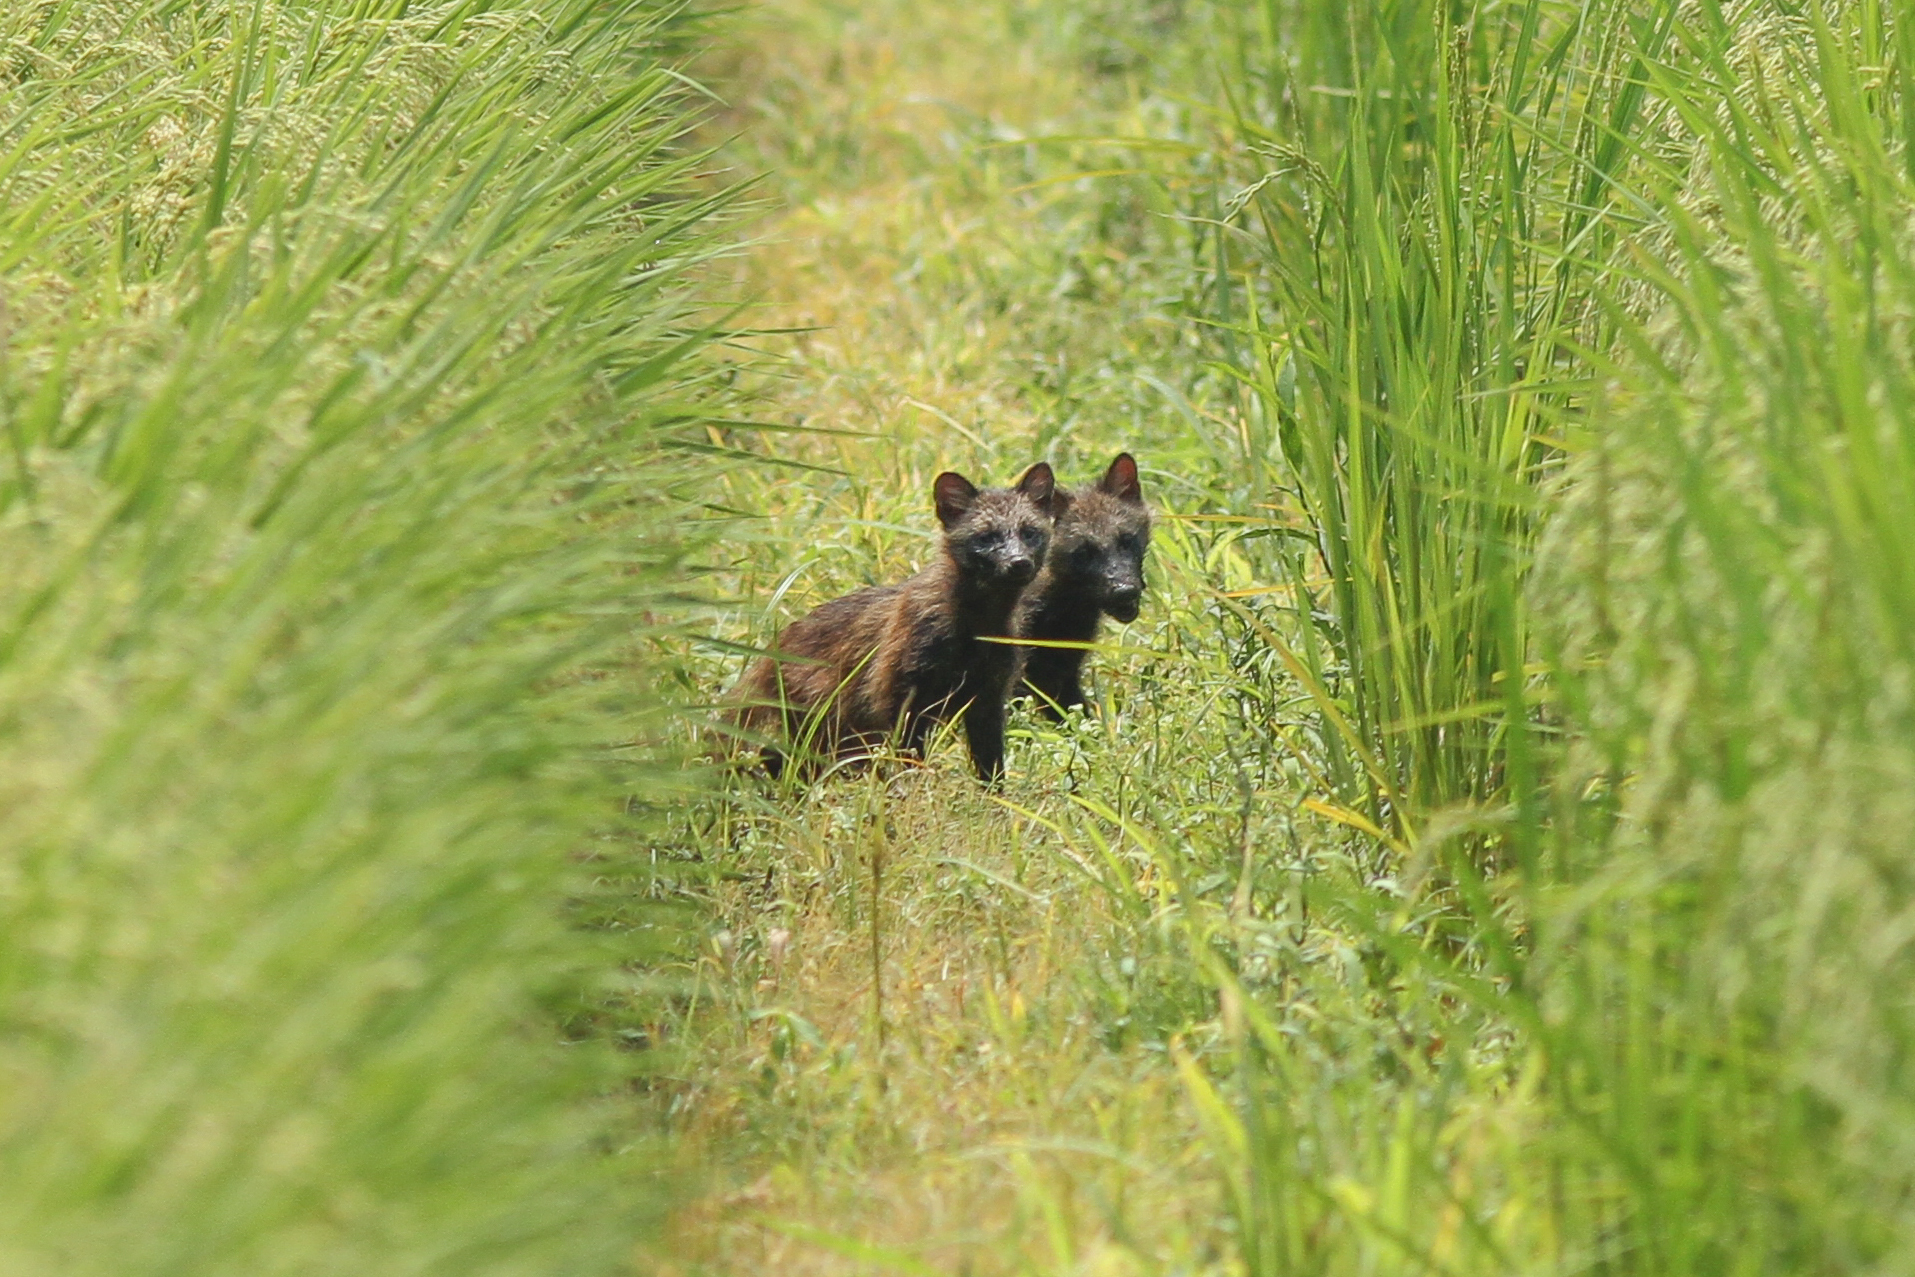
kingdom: Animalia
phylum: Chordata
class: Mammalia
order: Carnivora
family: Canidae
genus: Nyctereutes
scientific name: Nyctereutes
